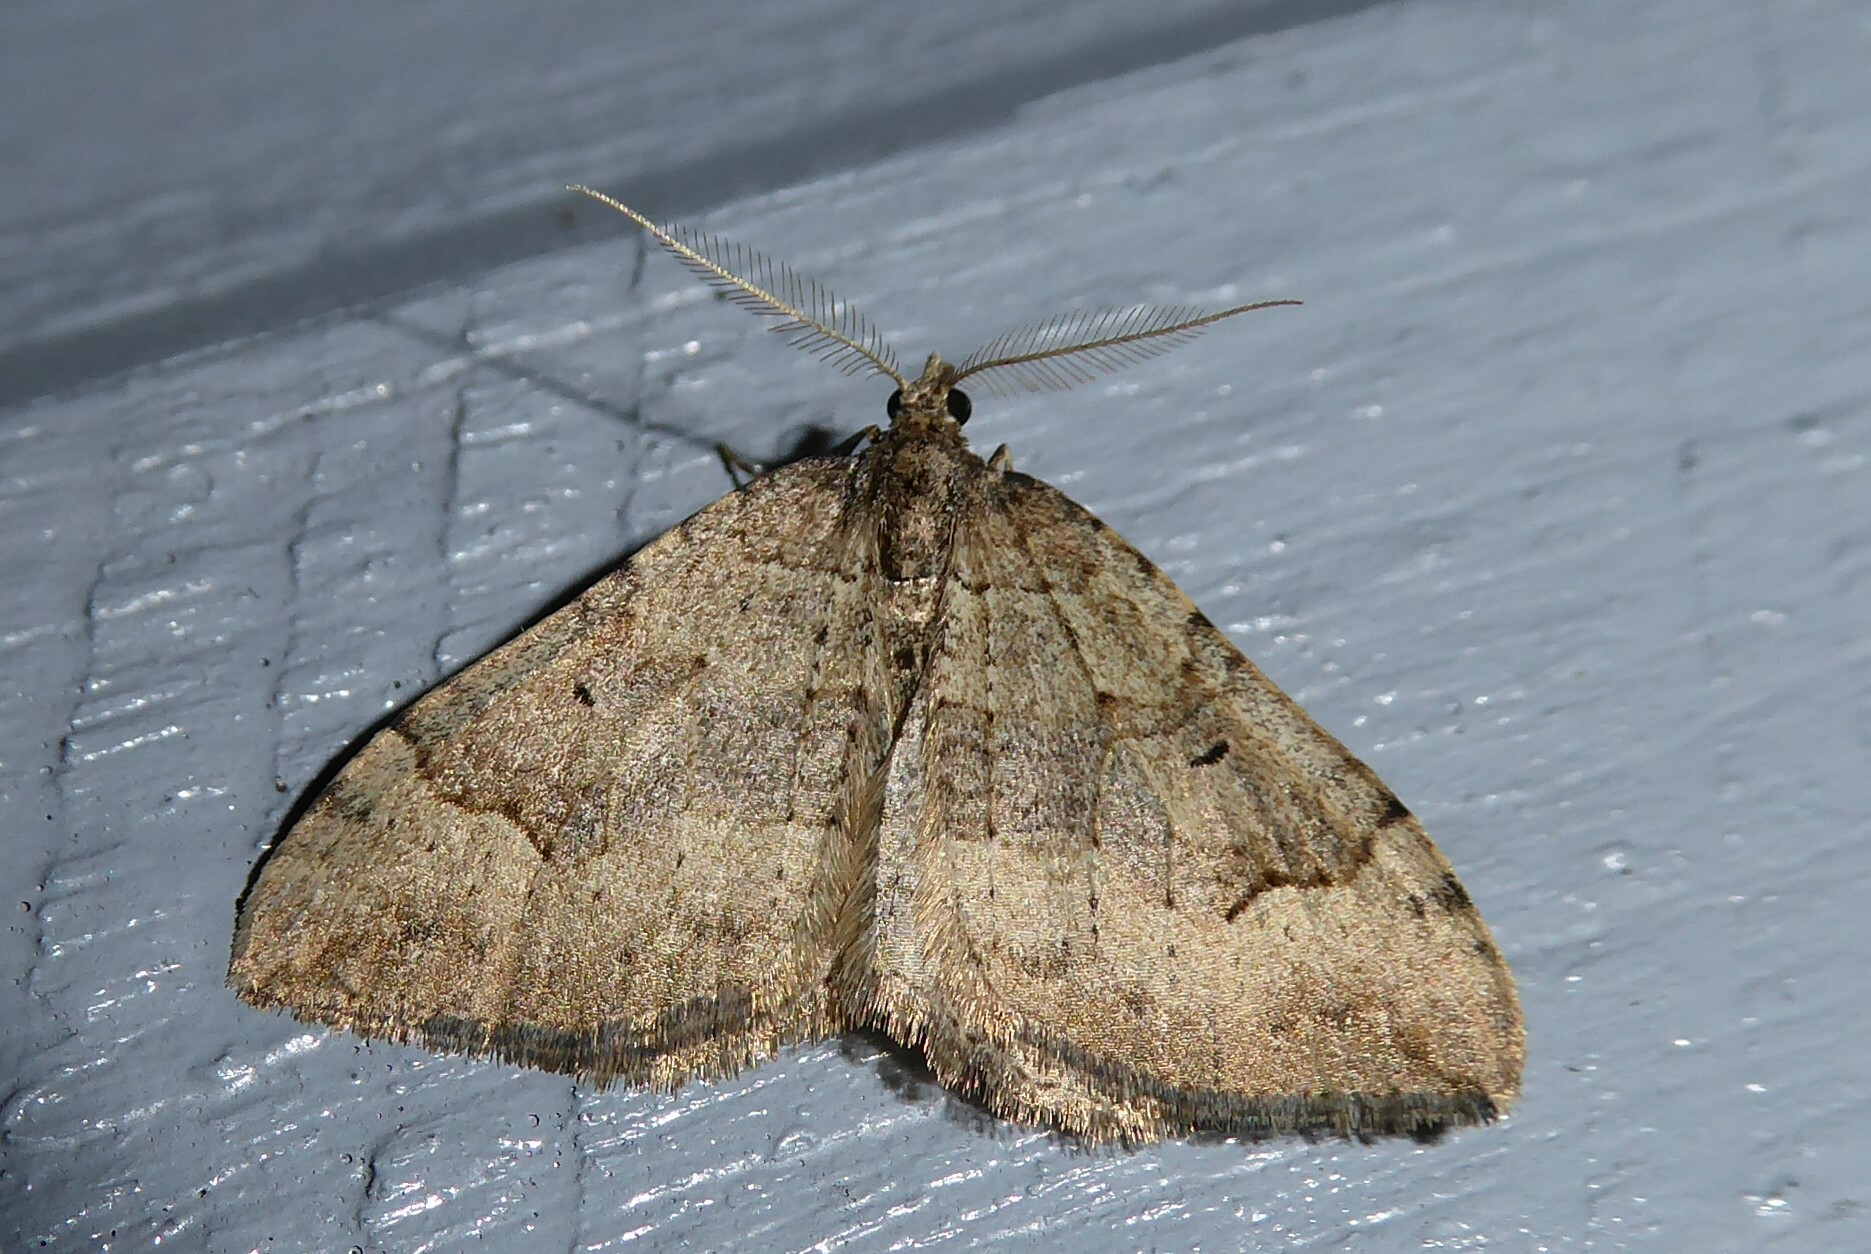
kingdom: Animalia
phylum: Arthropoda
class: Insecta
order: Lepidoptera
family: Geometridae
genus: Epyaxa
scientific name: Epyaxa rosearia
